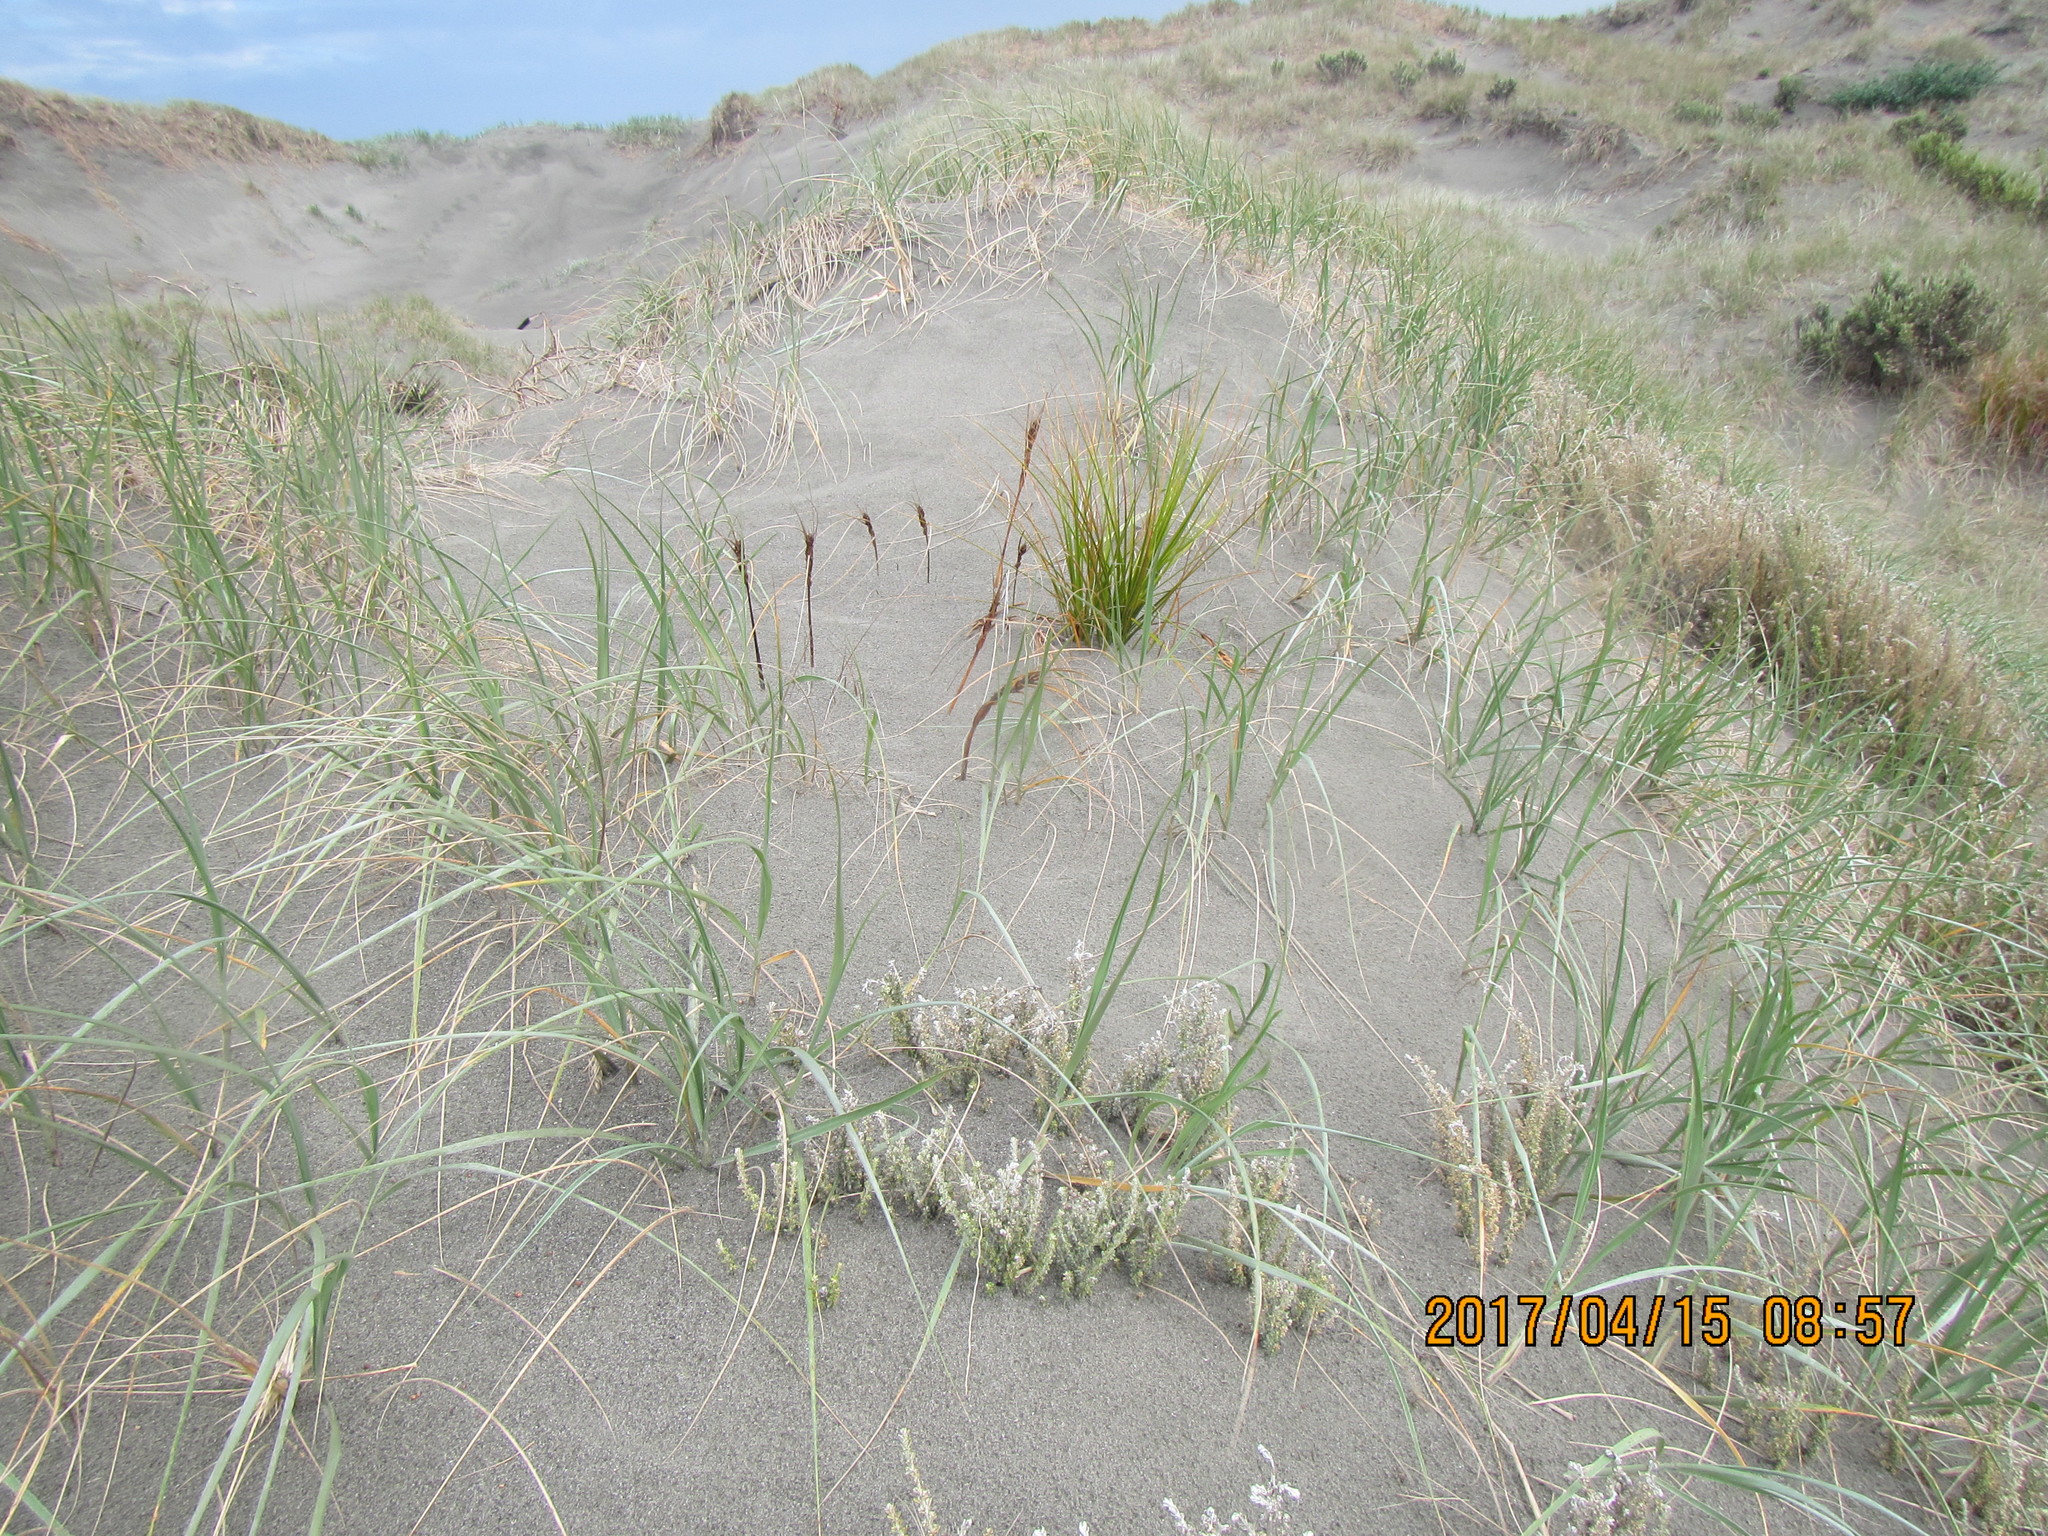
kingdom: Plantae
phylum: Tracheophyta
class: Liliopsida
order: Poales
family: Cyperaceae
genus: Ficinia
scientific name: Ficinia spiralis
